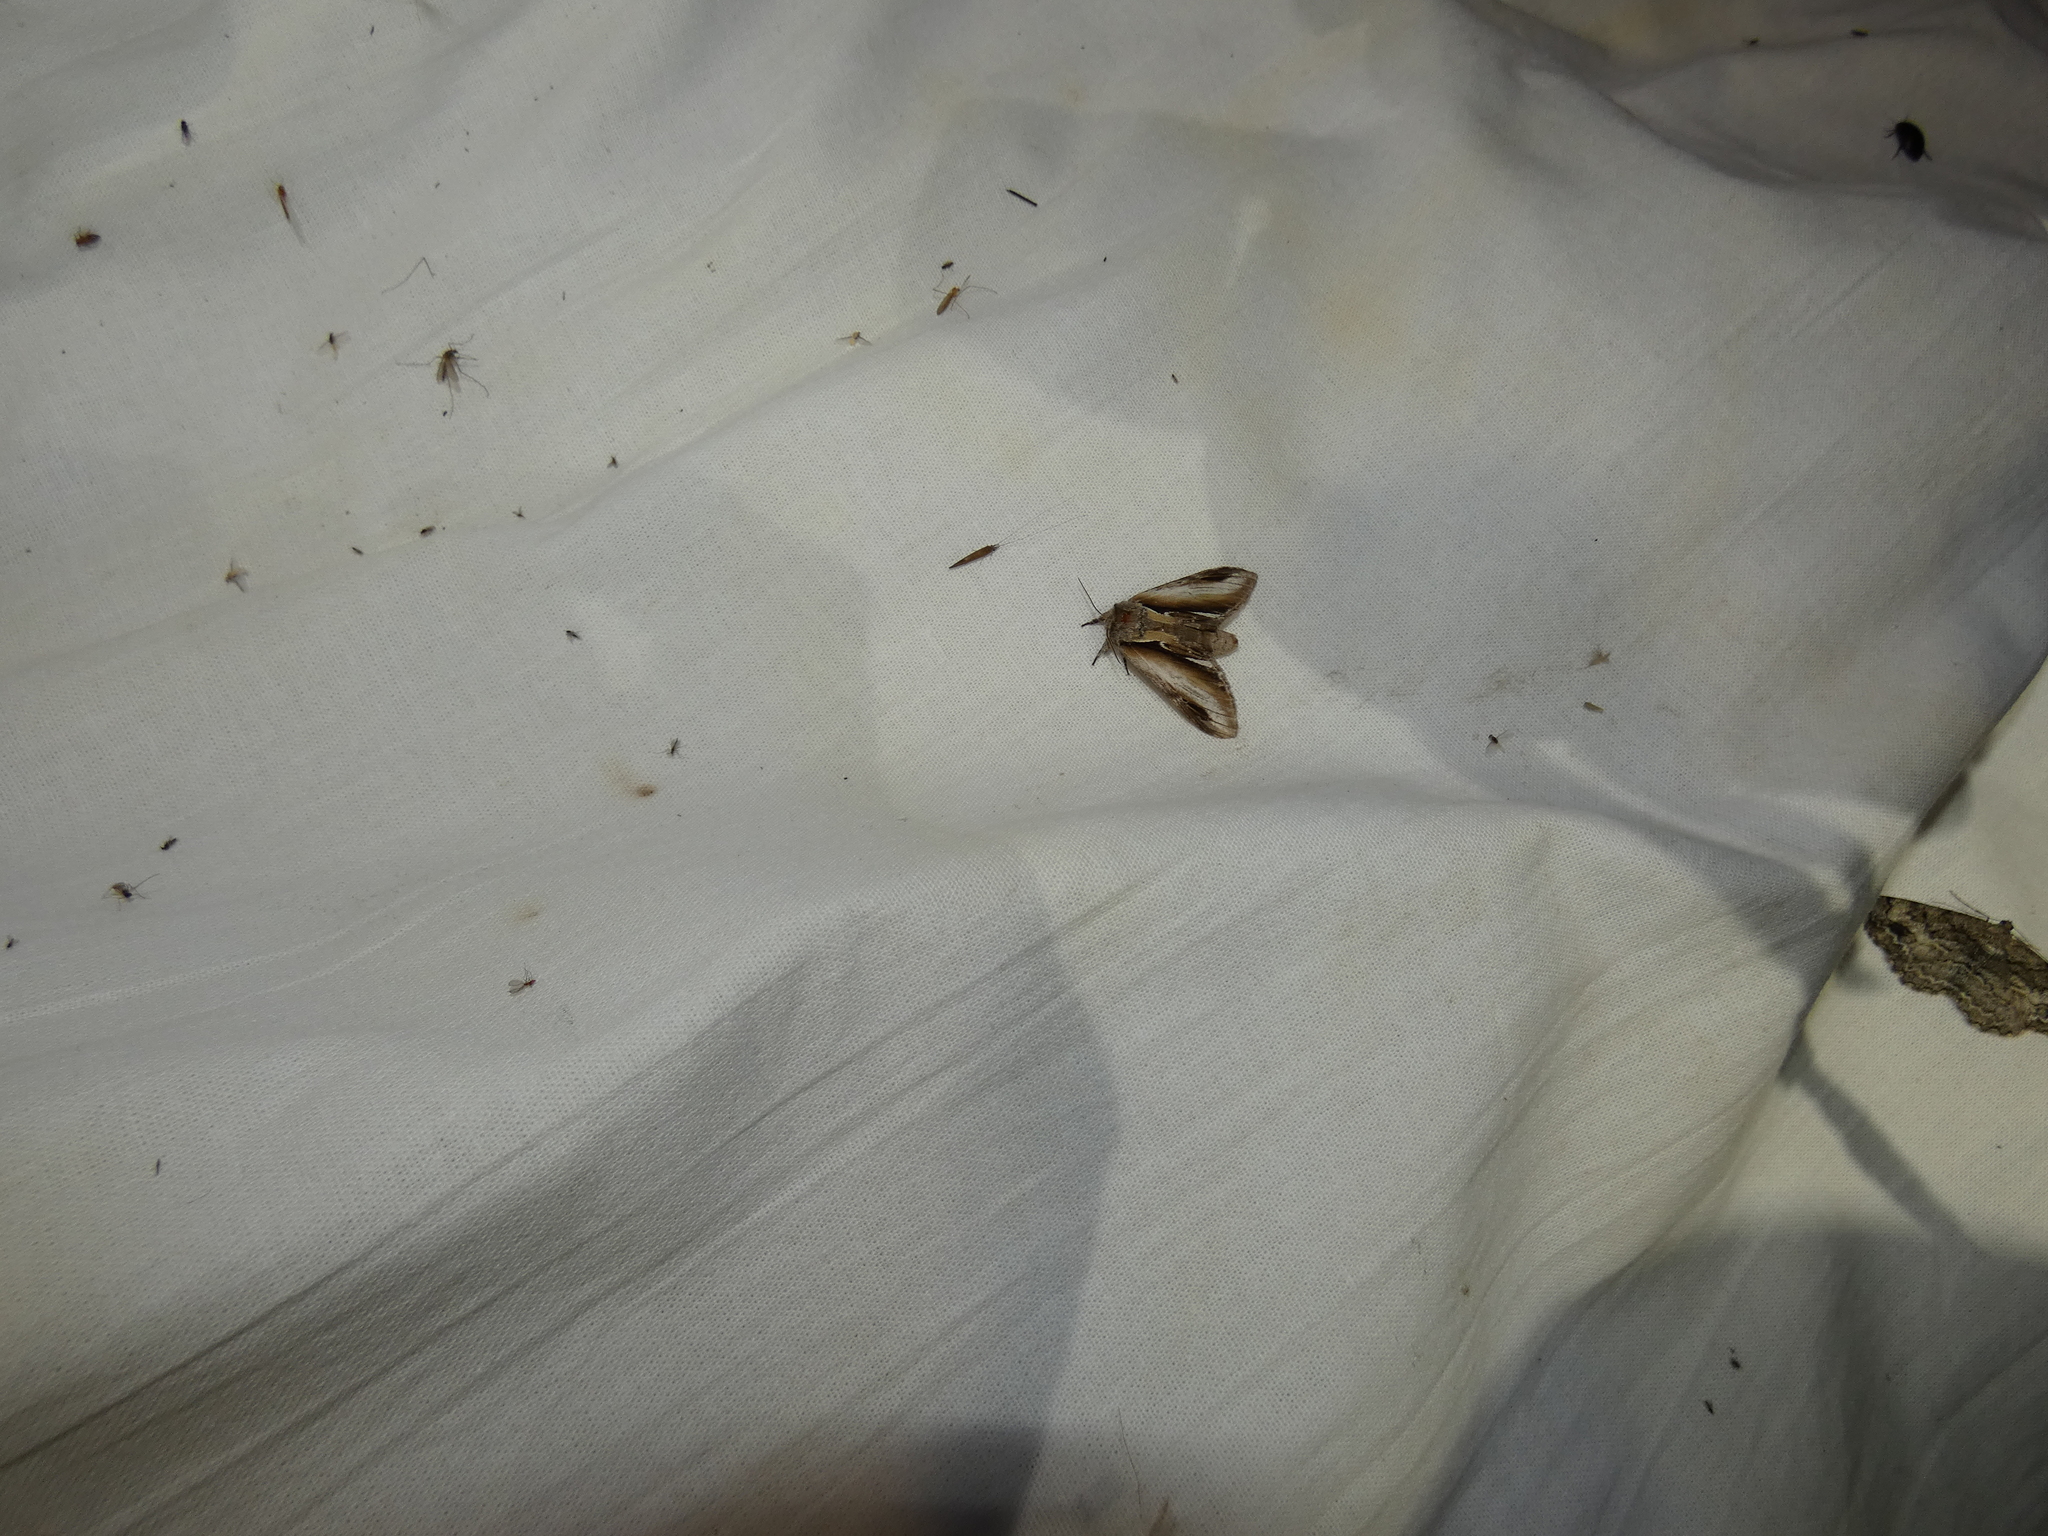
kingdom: Animalia
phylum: Arthropoda
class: Insecta
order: Lepidoptera
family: Notodontidae
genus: Pheosia
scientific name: Pheosia gnoma
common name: Lesser swallow prominent
